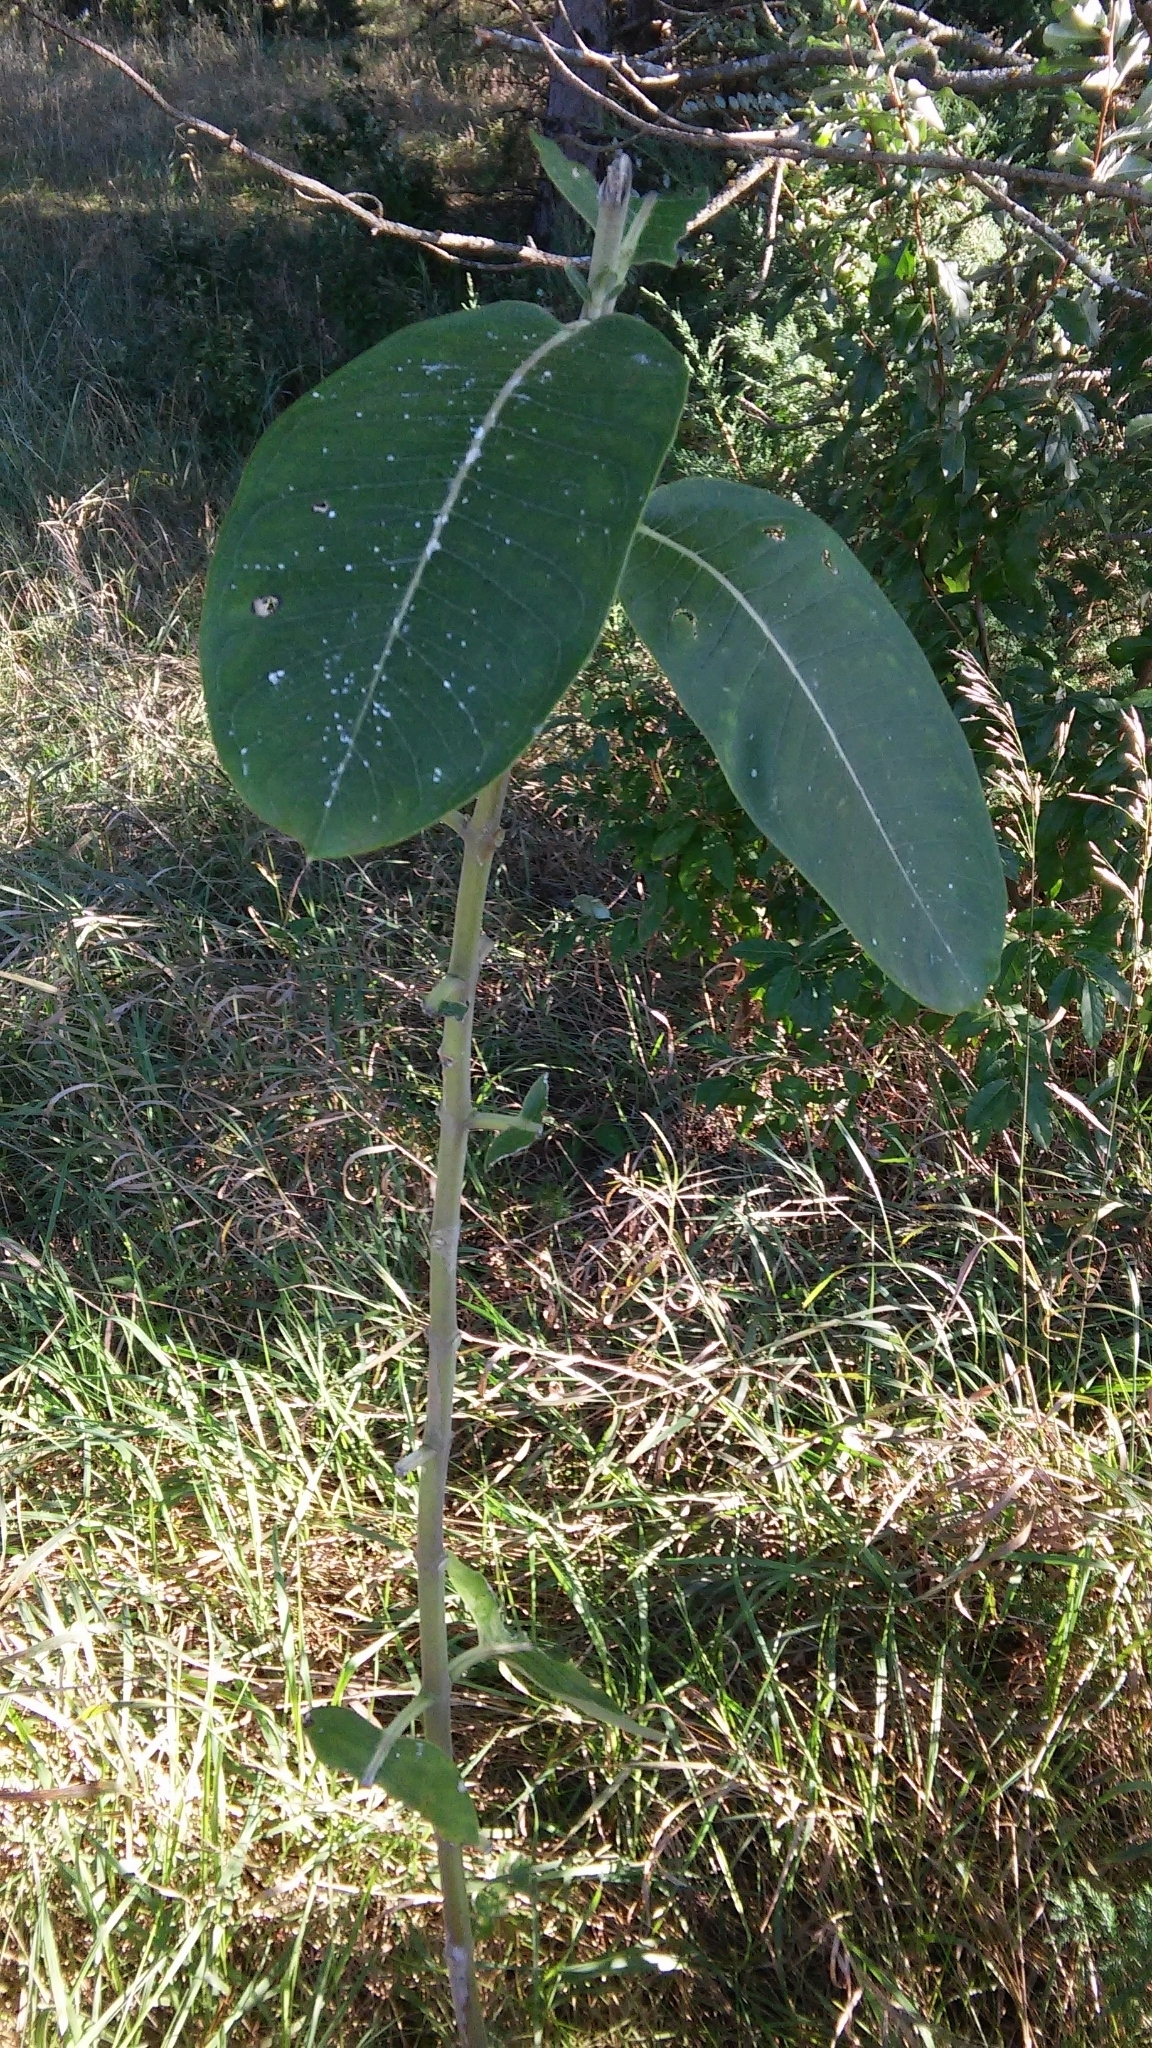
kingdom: Plantae
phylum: Tracheophyta
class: Magnoliopsida
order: Gentianales
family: Apocynaceae
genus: Asclepias
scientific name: Asclepias syriaca
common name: Common milkweed
